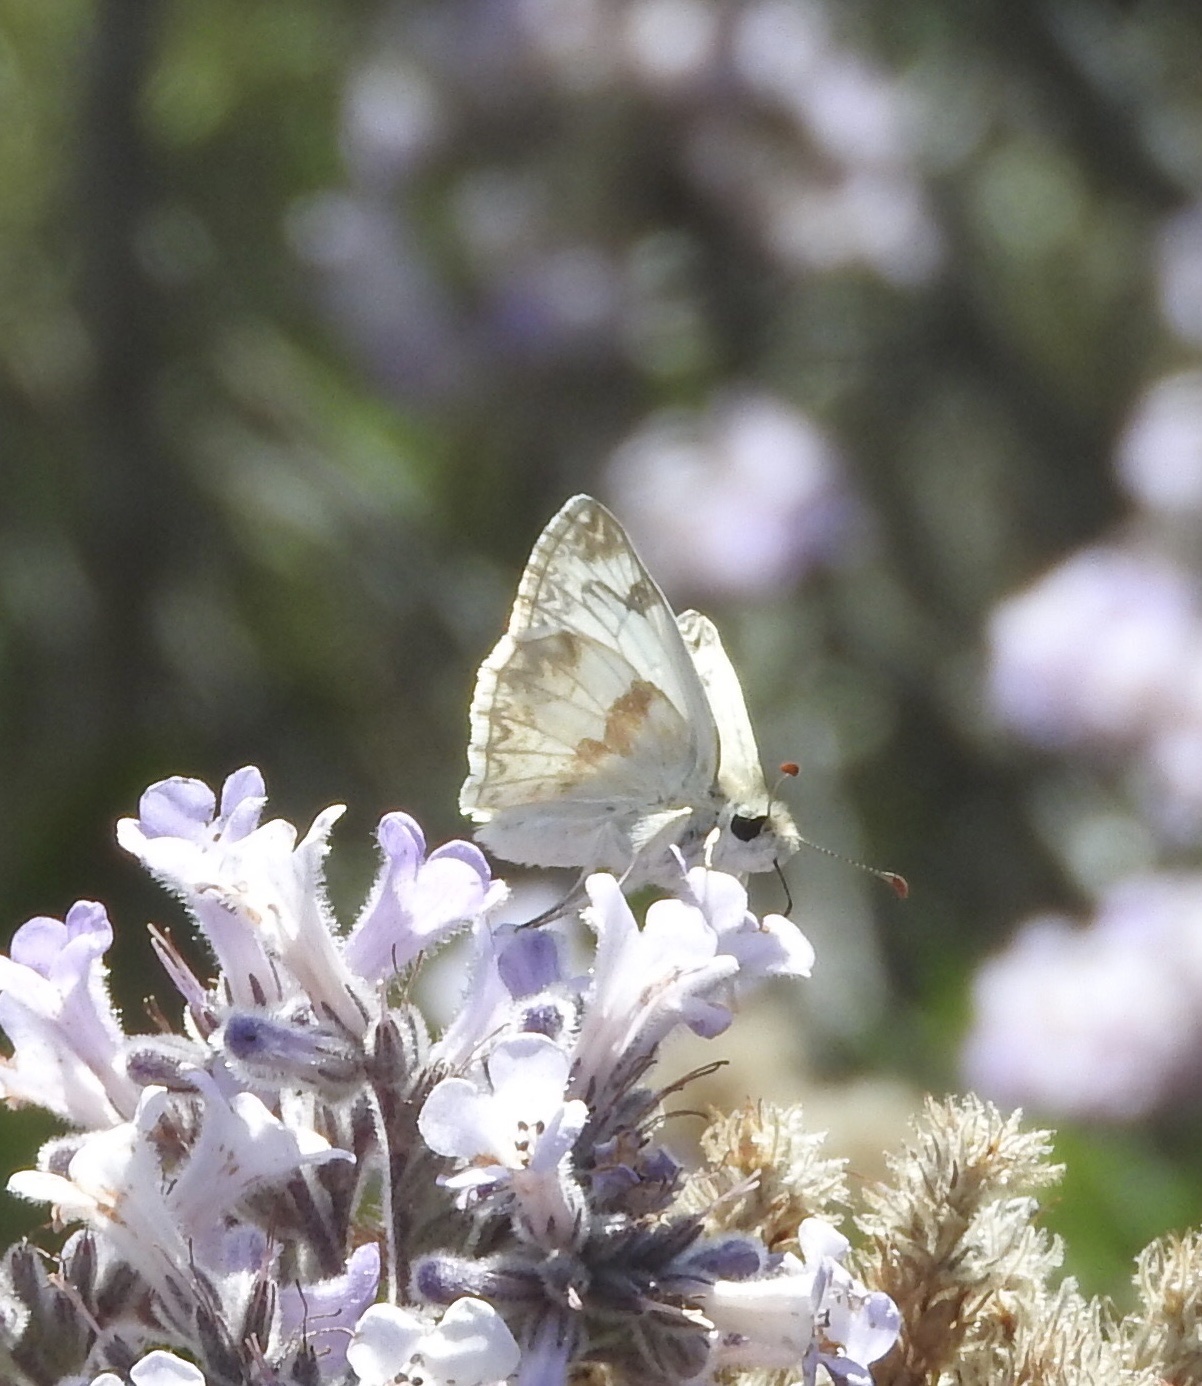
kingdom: Animalia
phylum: Arthropoda
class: Insecta
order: Lepidoptera
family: Hesperiidae
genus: Heliopetes
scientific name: Heliopetes ericetorum
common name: Northern white-skipper
